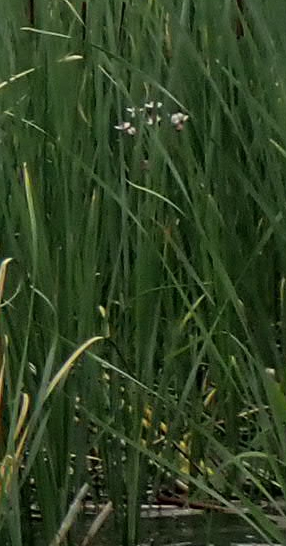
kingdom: Plantae
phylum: Tracheophyta
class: Liliopsida
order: Alismatales
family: Butomaceae
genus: Butomus
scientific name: Butomus umbellatus
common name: Flowering-rush
